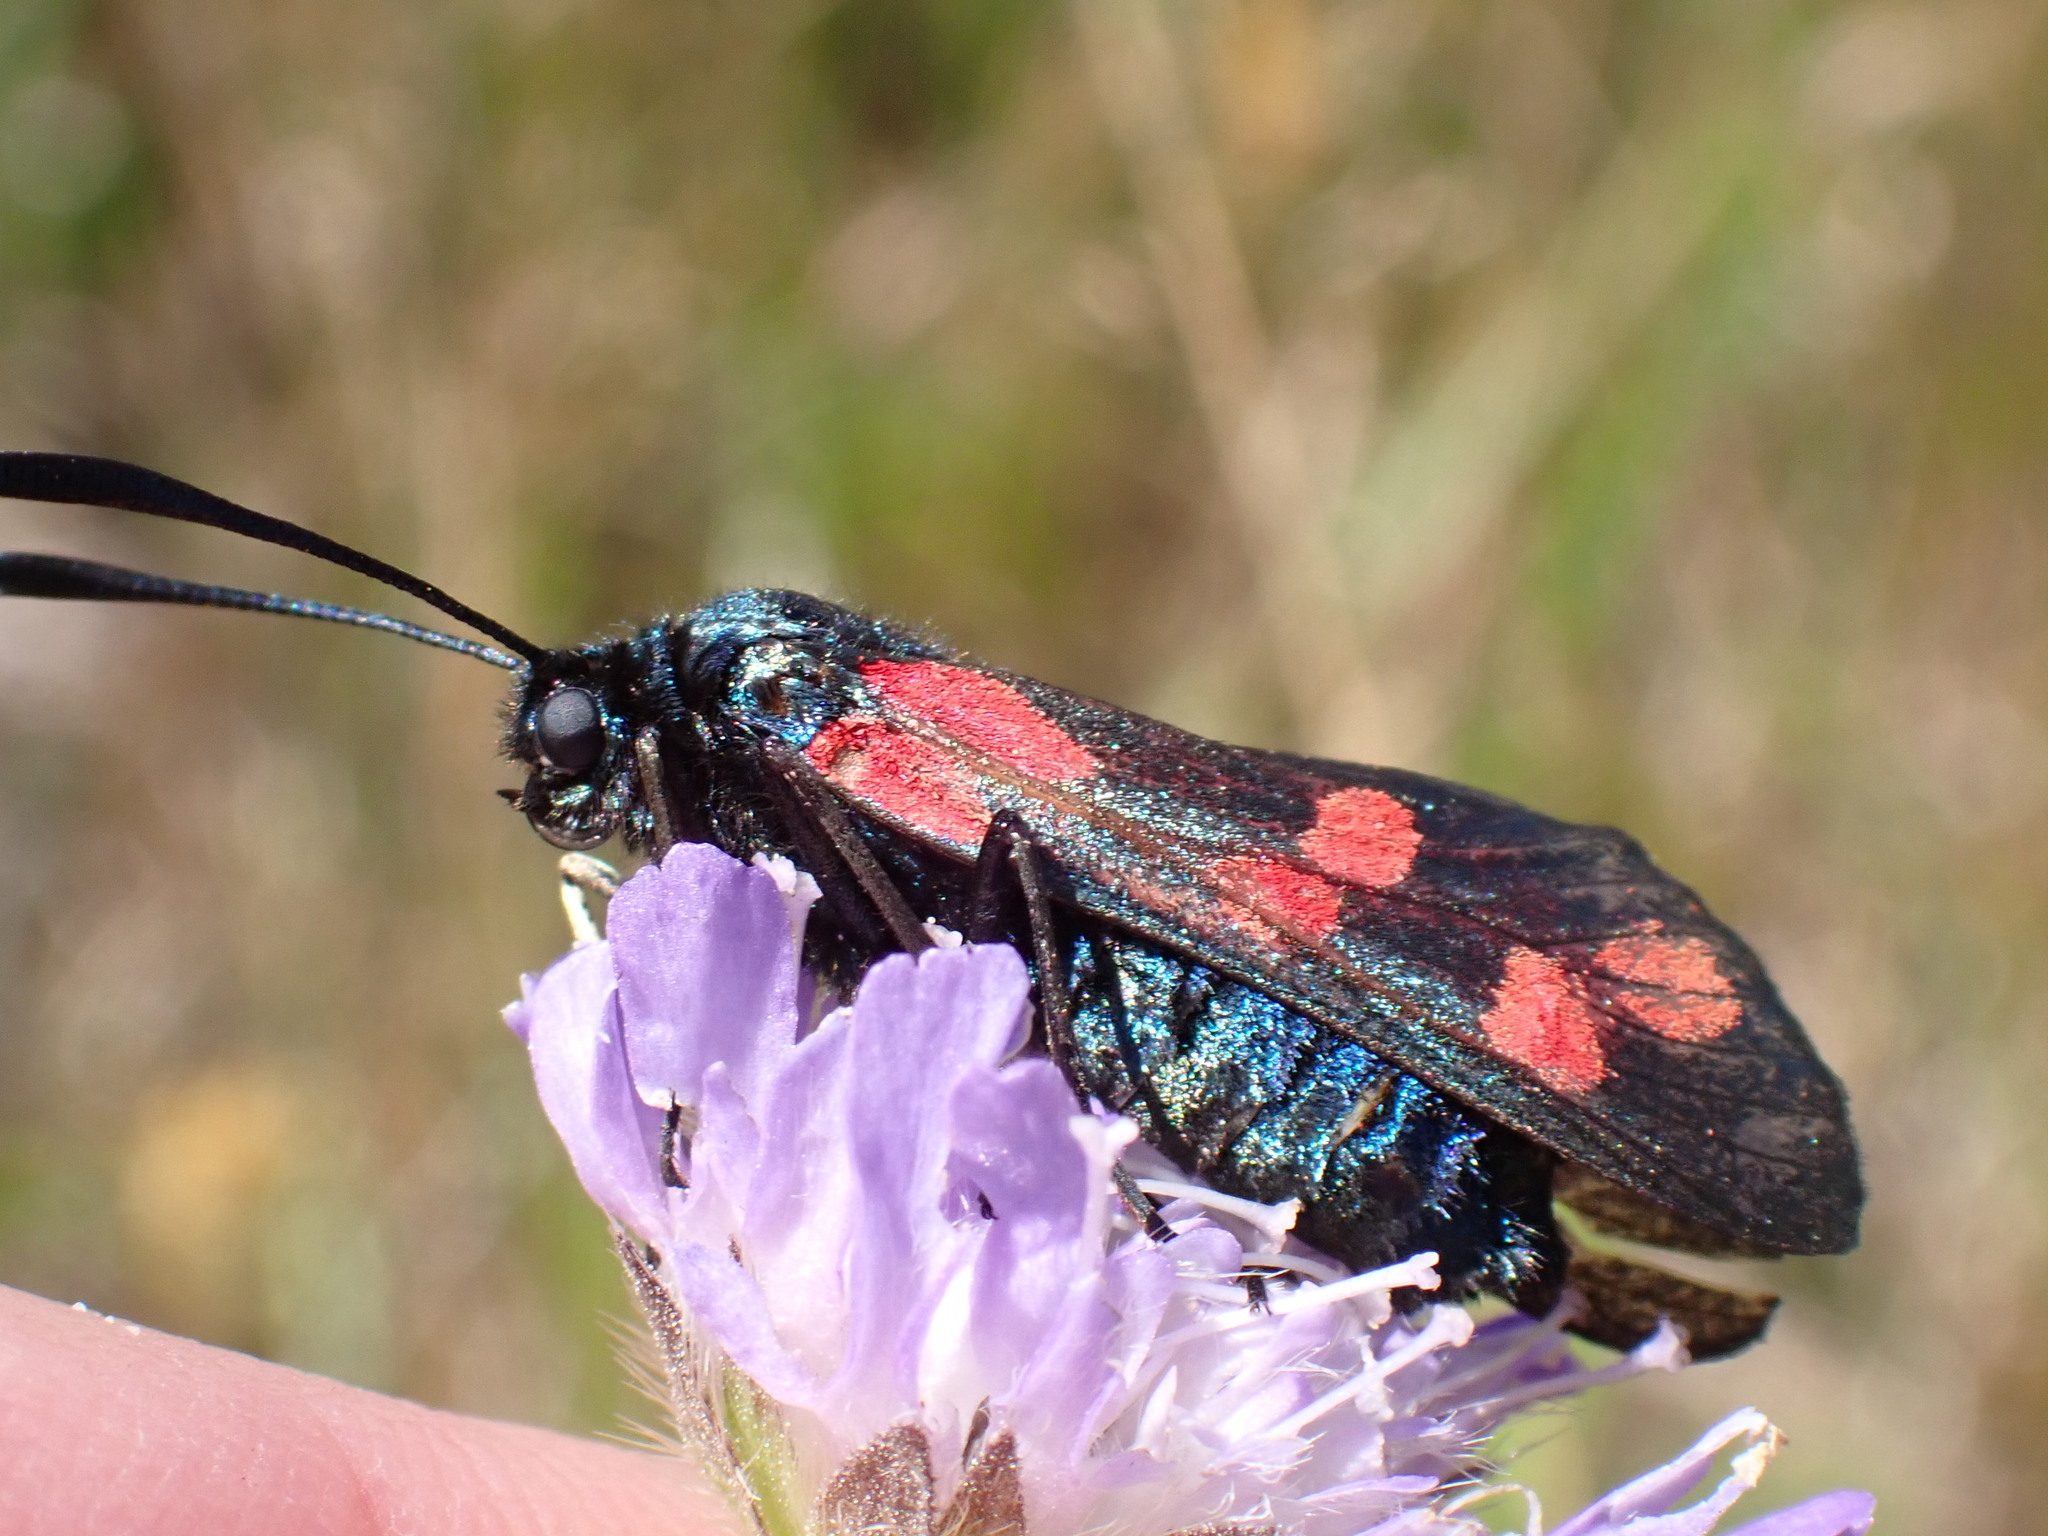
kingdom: Animalia
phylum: Arthropoda
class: Insecta
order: Lepidoptera
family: Zygaenidae
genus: Zygaena
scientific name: Zygaena filipendulae
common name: Six-spot burnet
